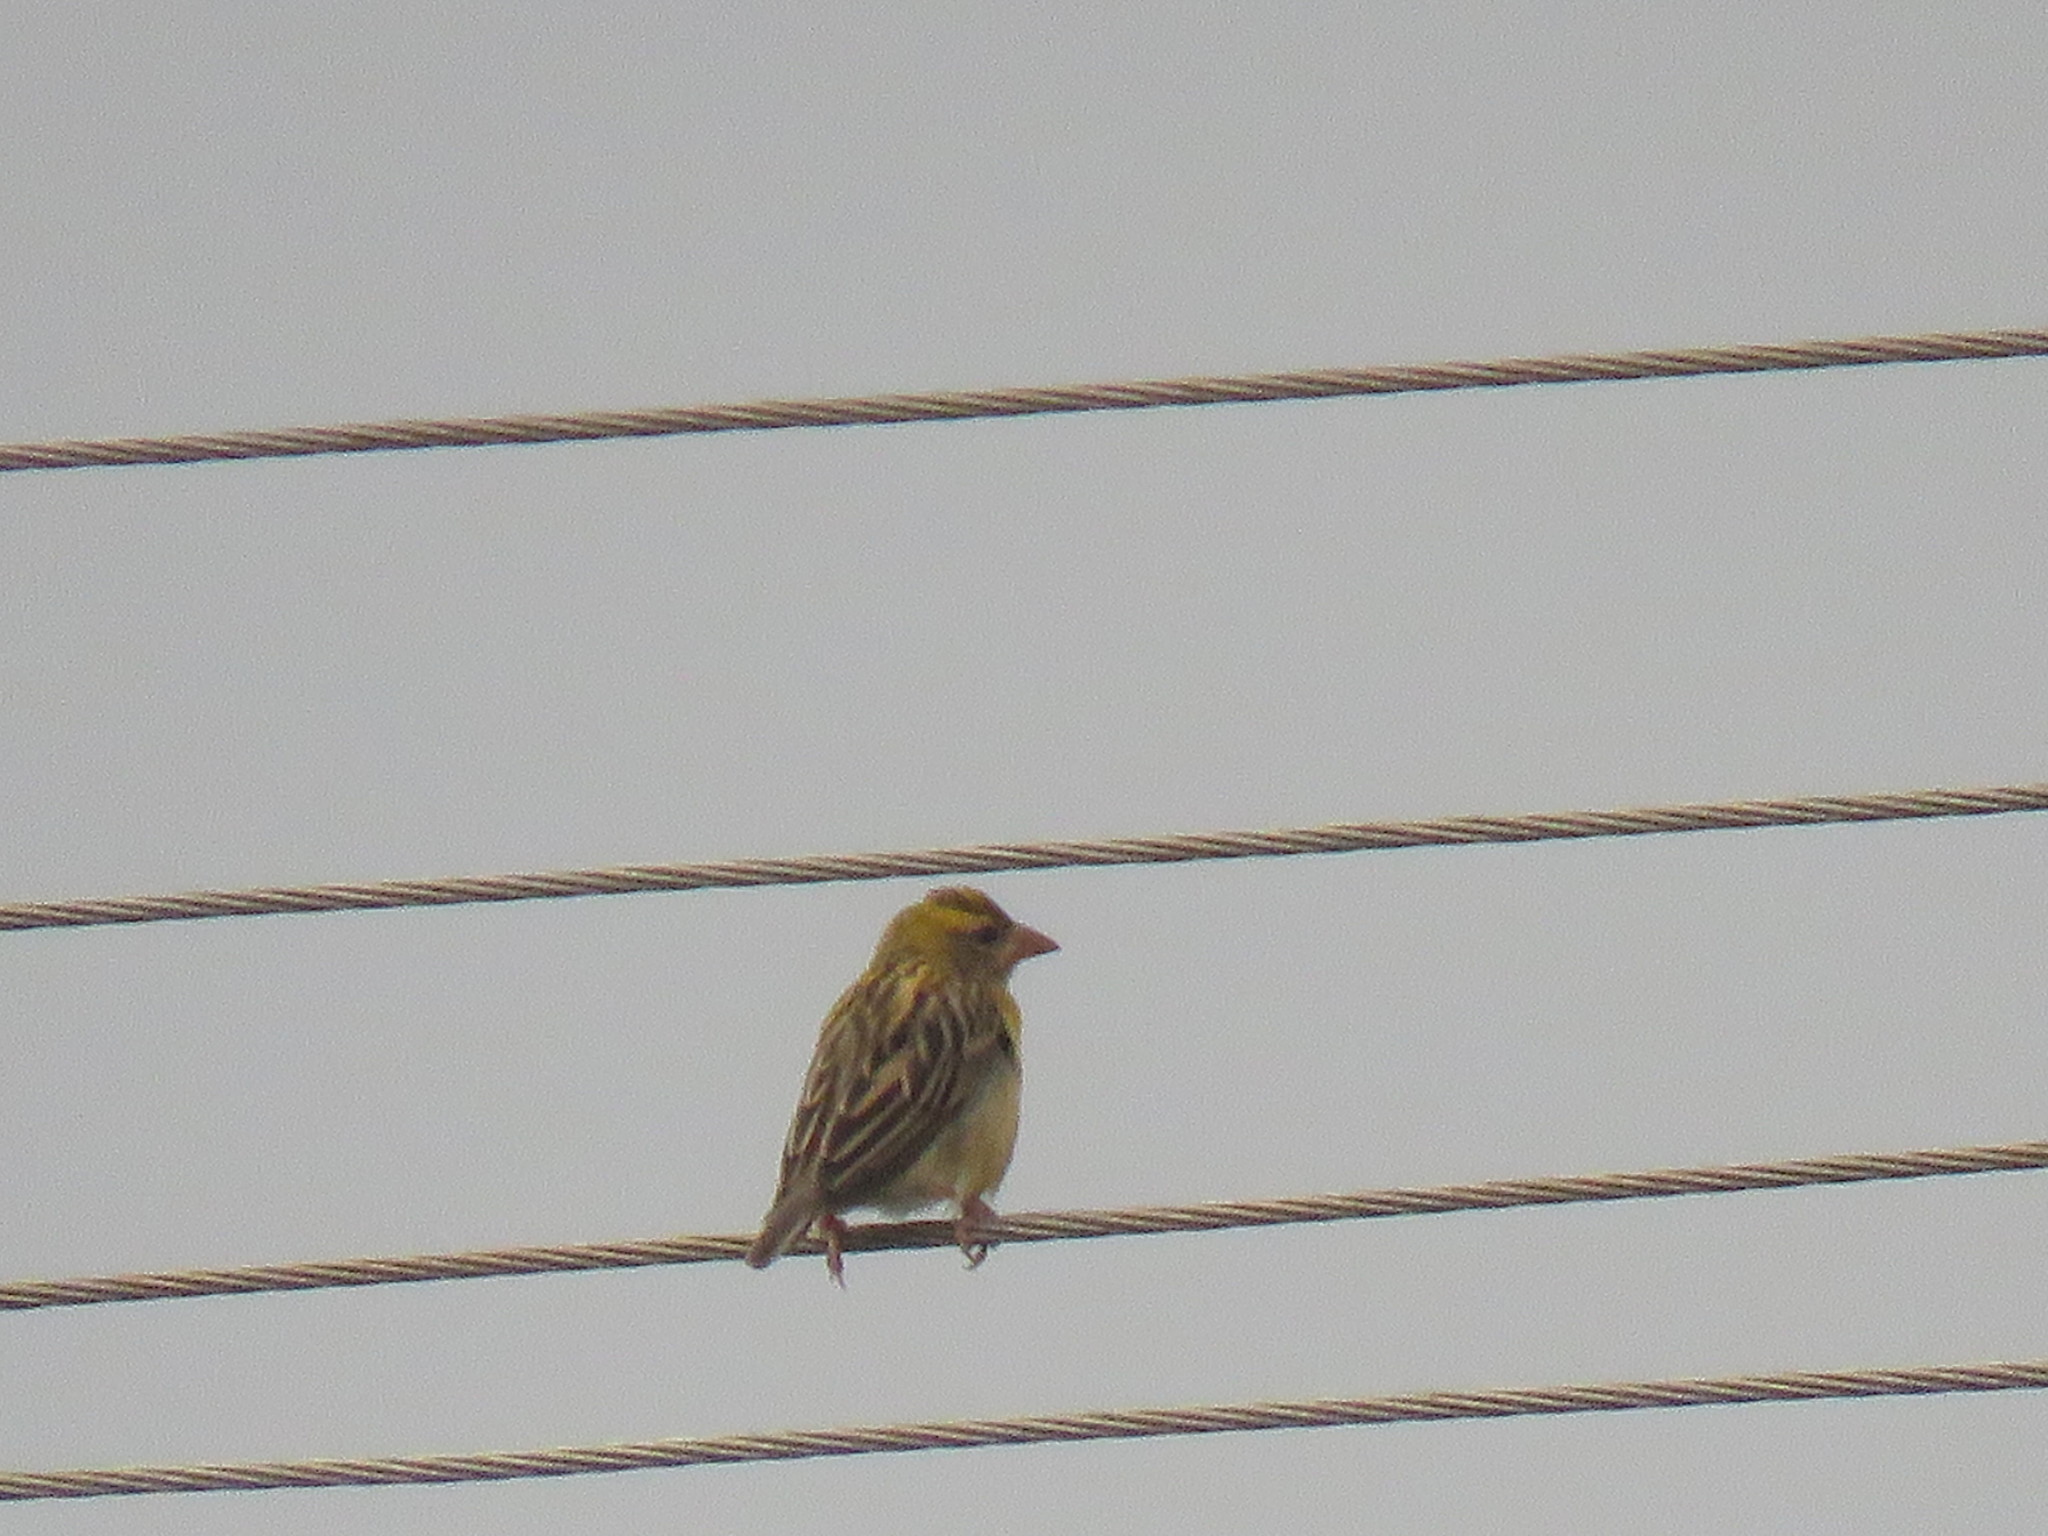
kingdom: Animalia
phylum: Chordata
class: Aves
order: Passeriformes
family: Ploceidae
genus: Ploceus
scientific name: Ploceus philippinus
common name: Baya weaver
